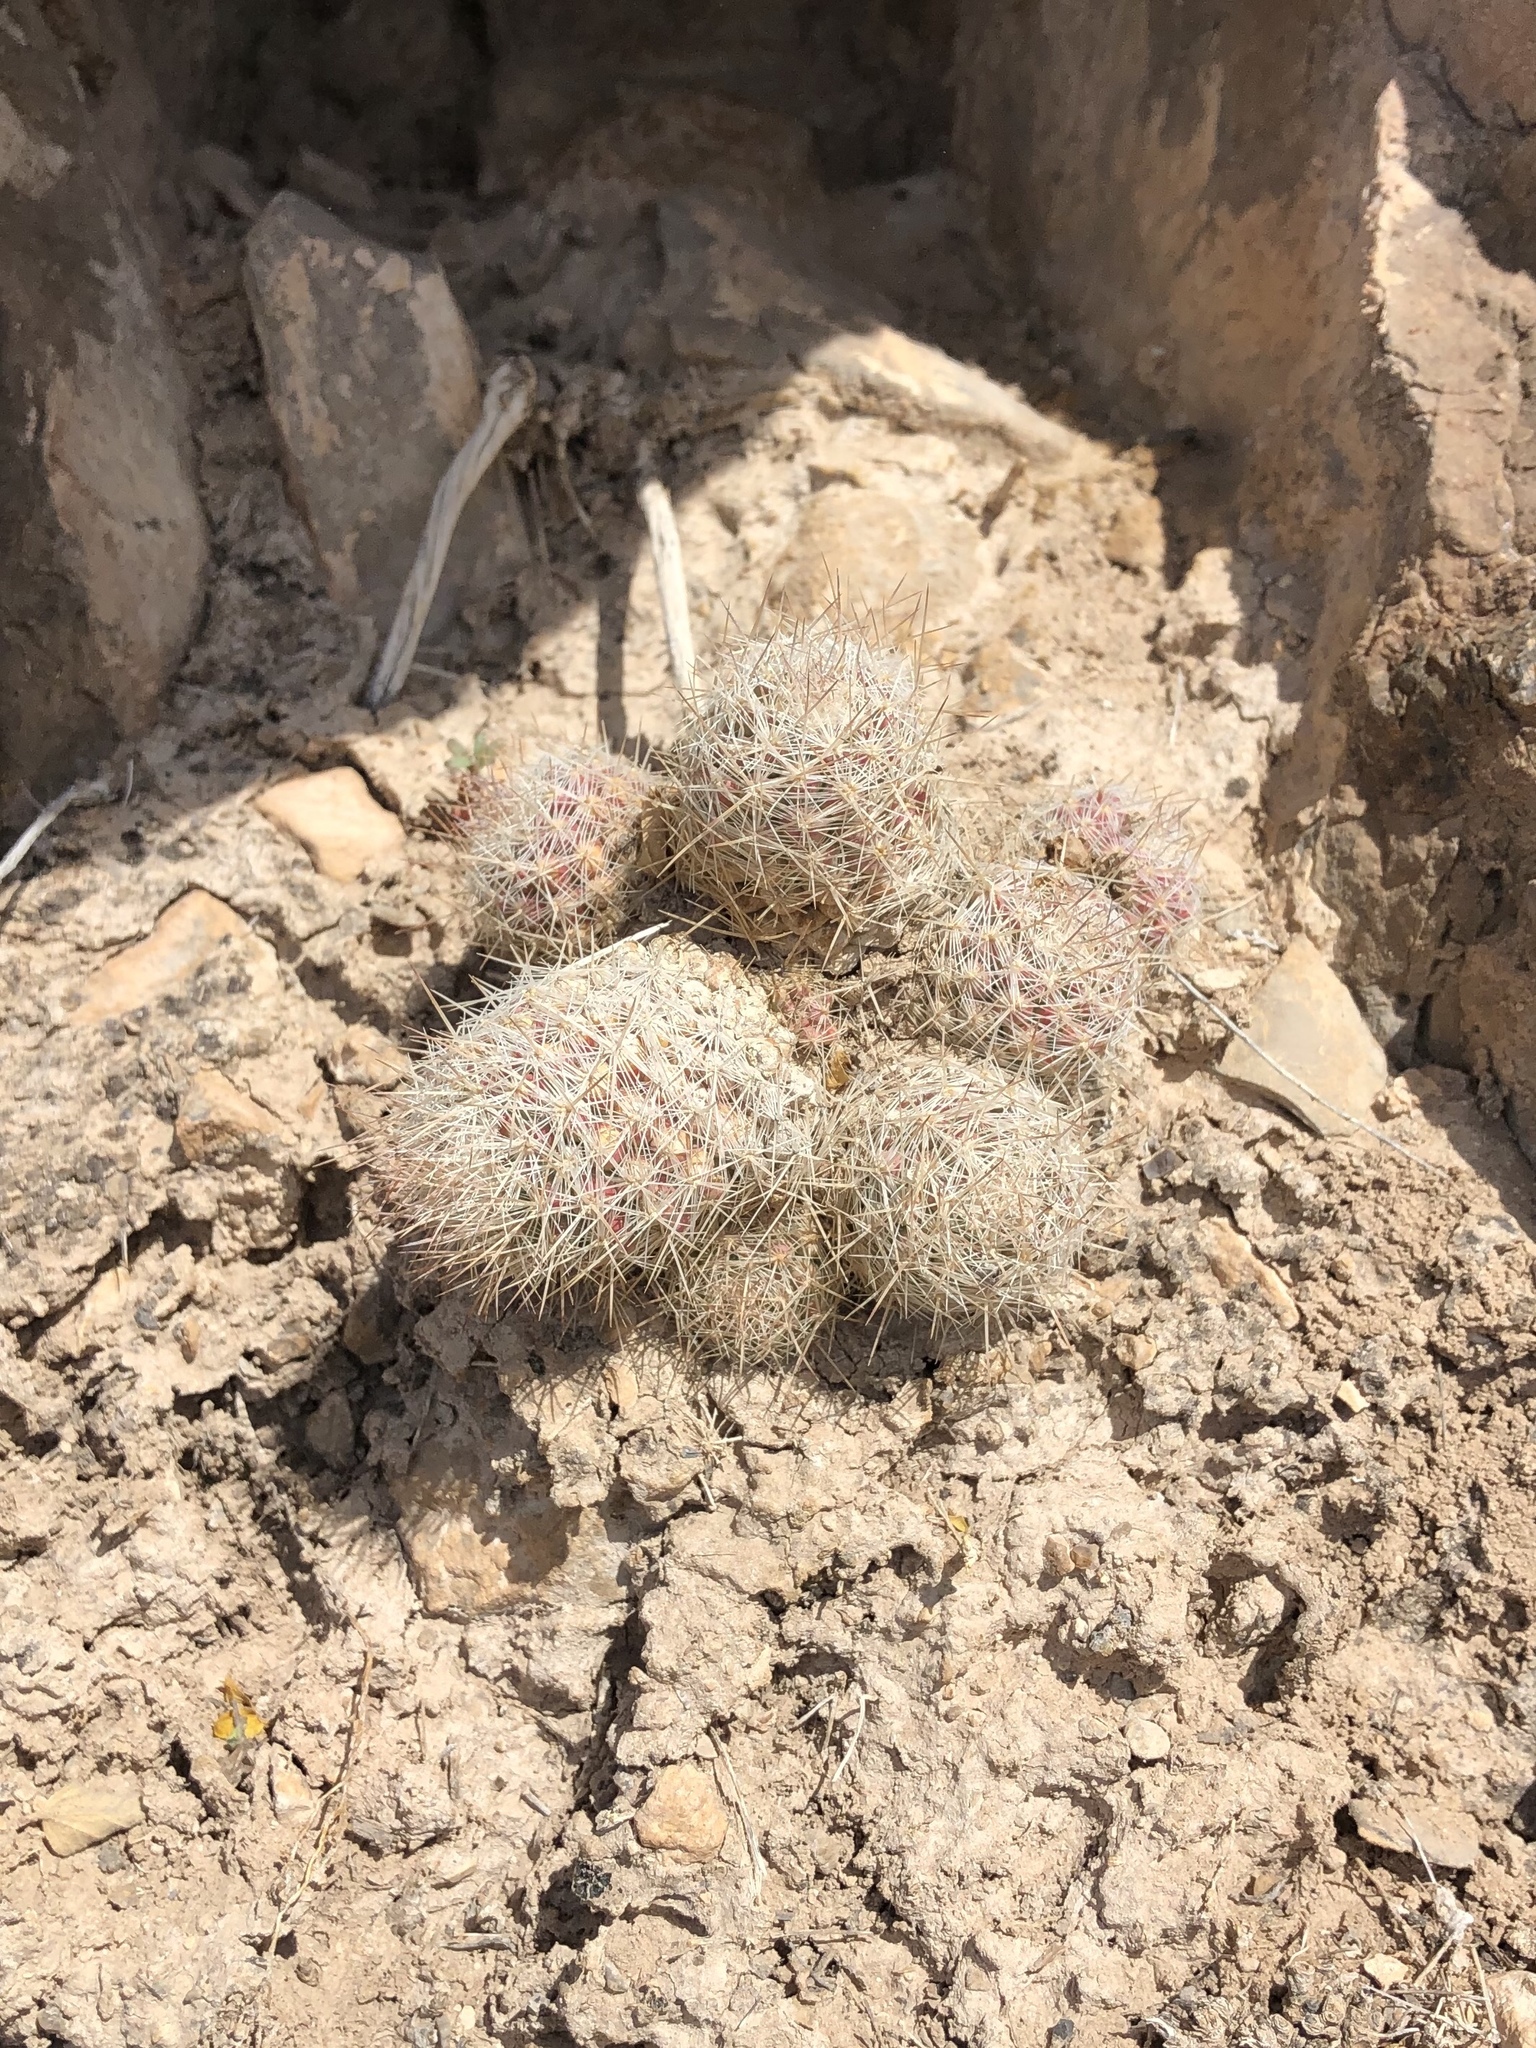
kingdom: Plantae
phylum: Tracheophyta
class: Magnoliopsida
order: Caryophyllales
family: Cactaceae
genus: Pelecyphora
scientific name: Pelecyphora tuberculosa
